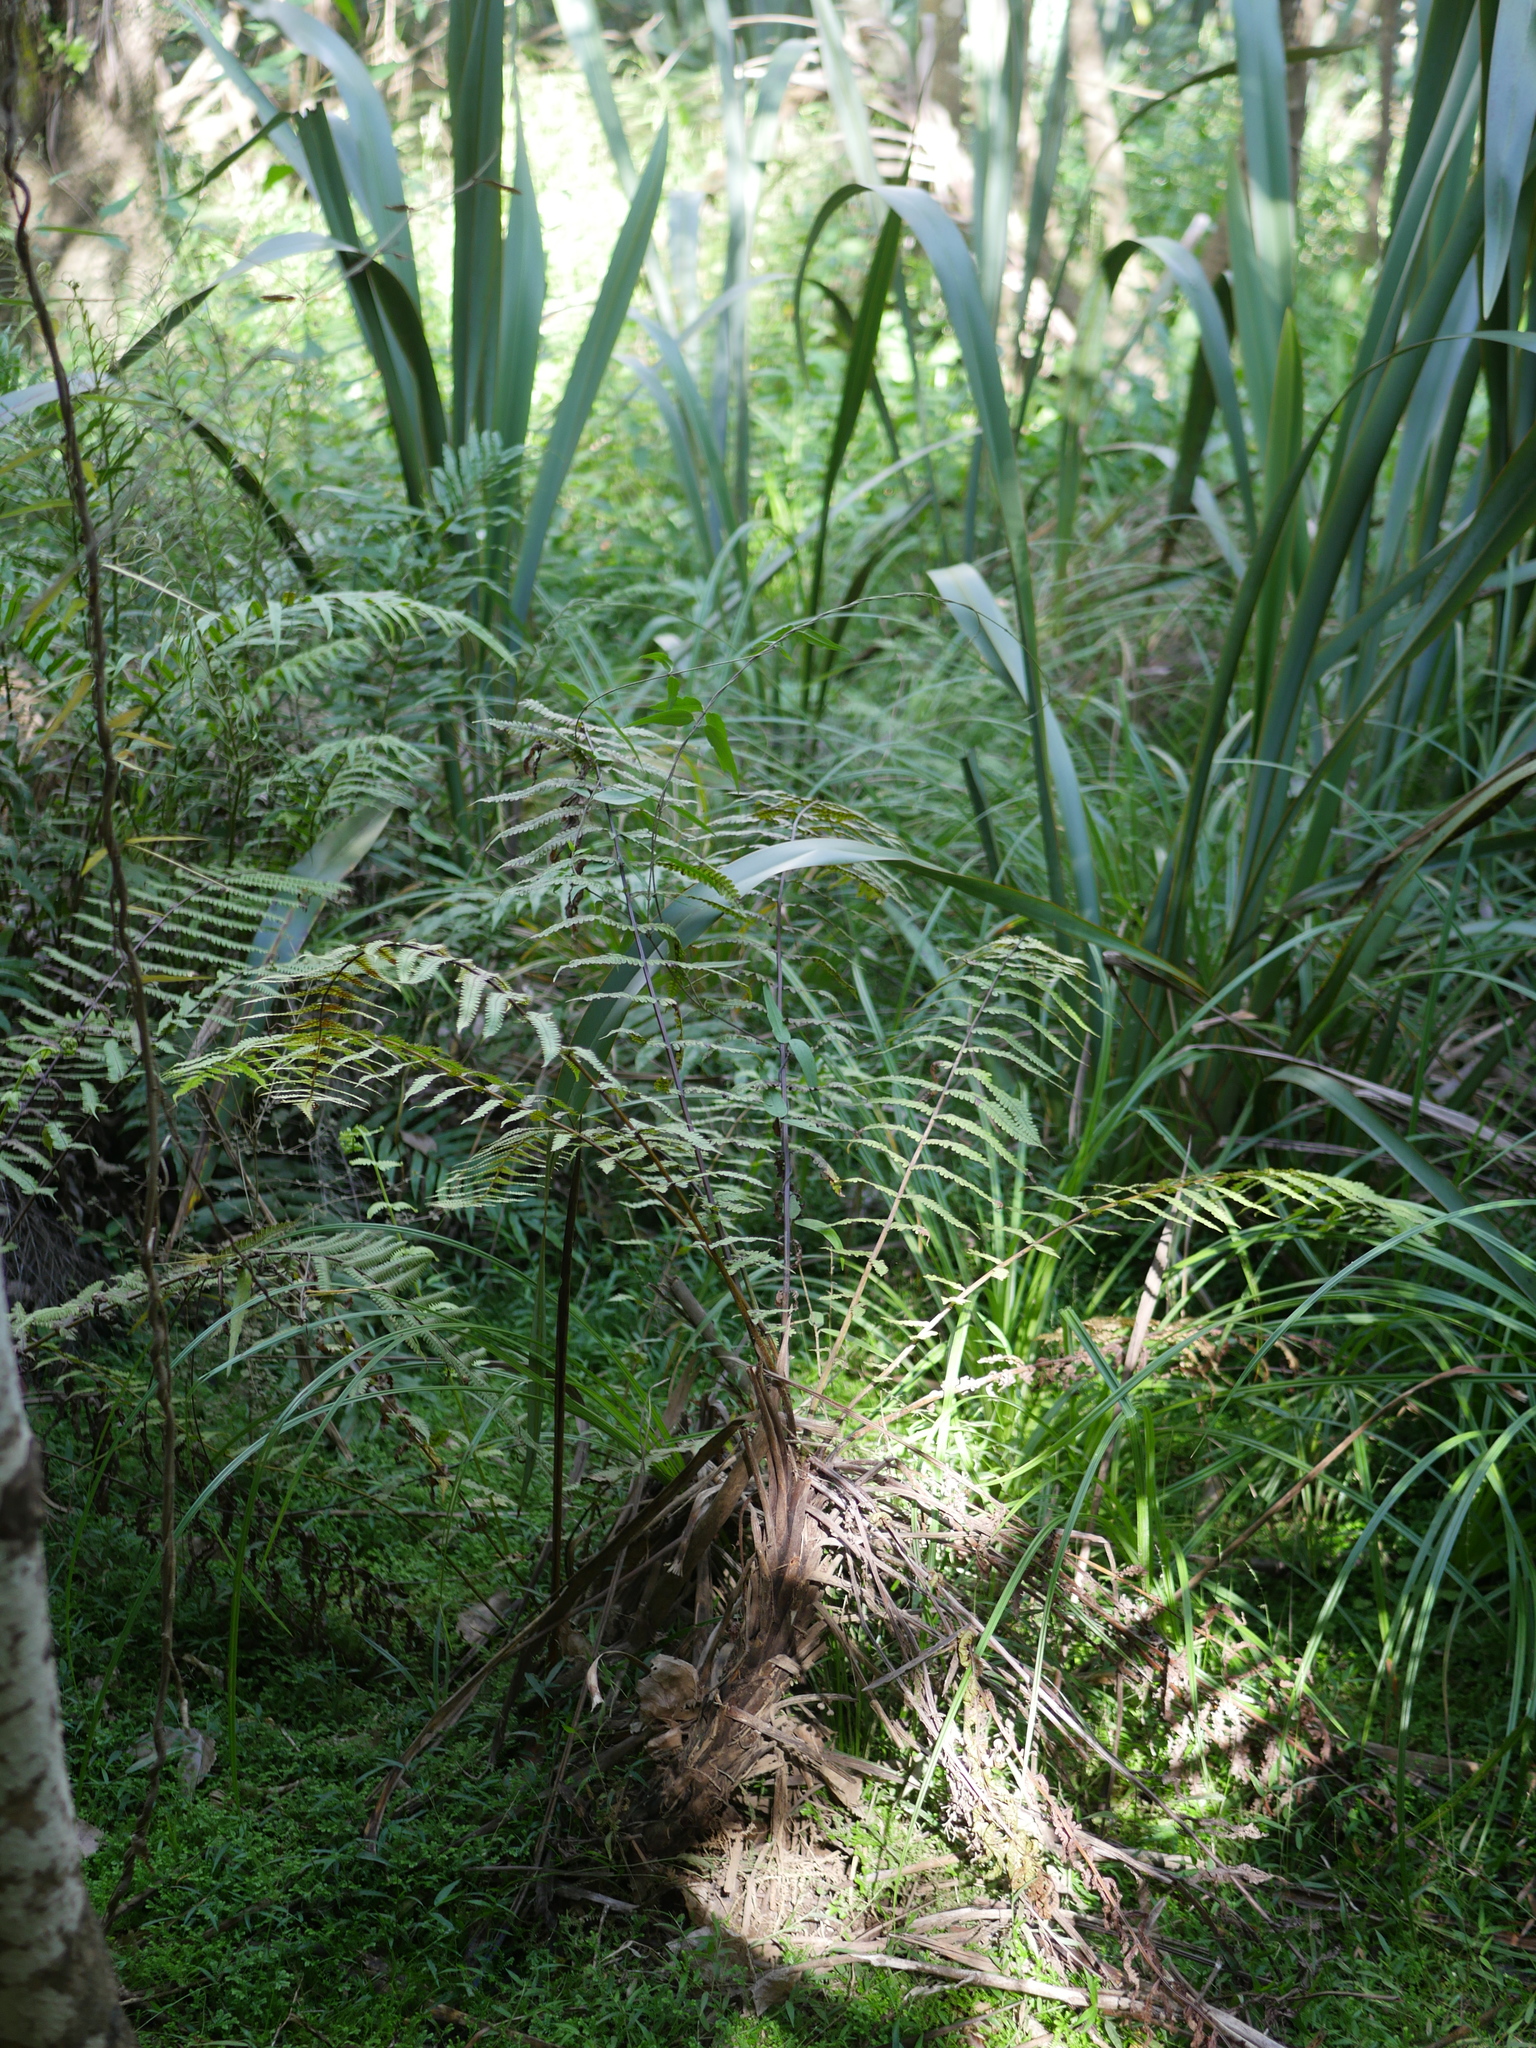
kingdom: Plantae
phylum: Tracheophyta
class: Polypodiopsida
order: Polypodiales
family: Thelypteridaceae
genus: Pakau
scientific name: Pakau pennigera
